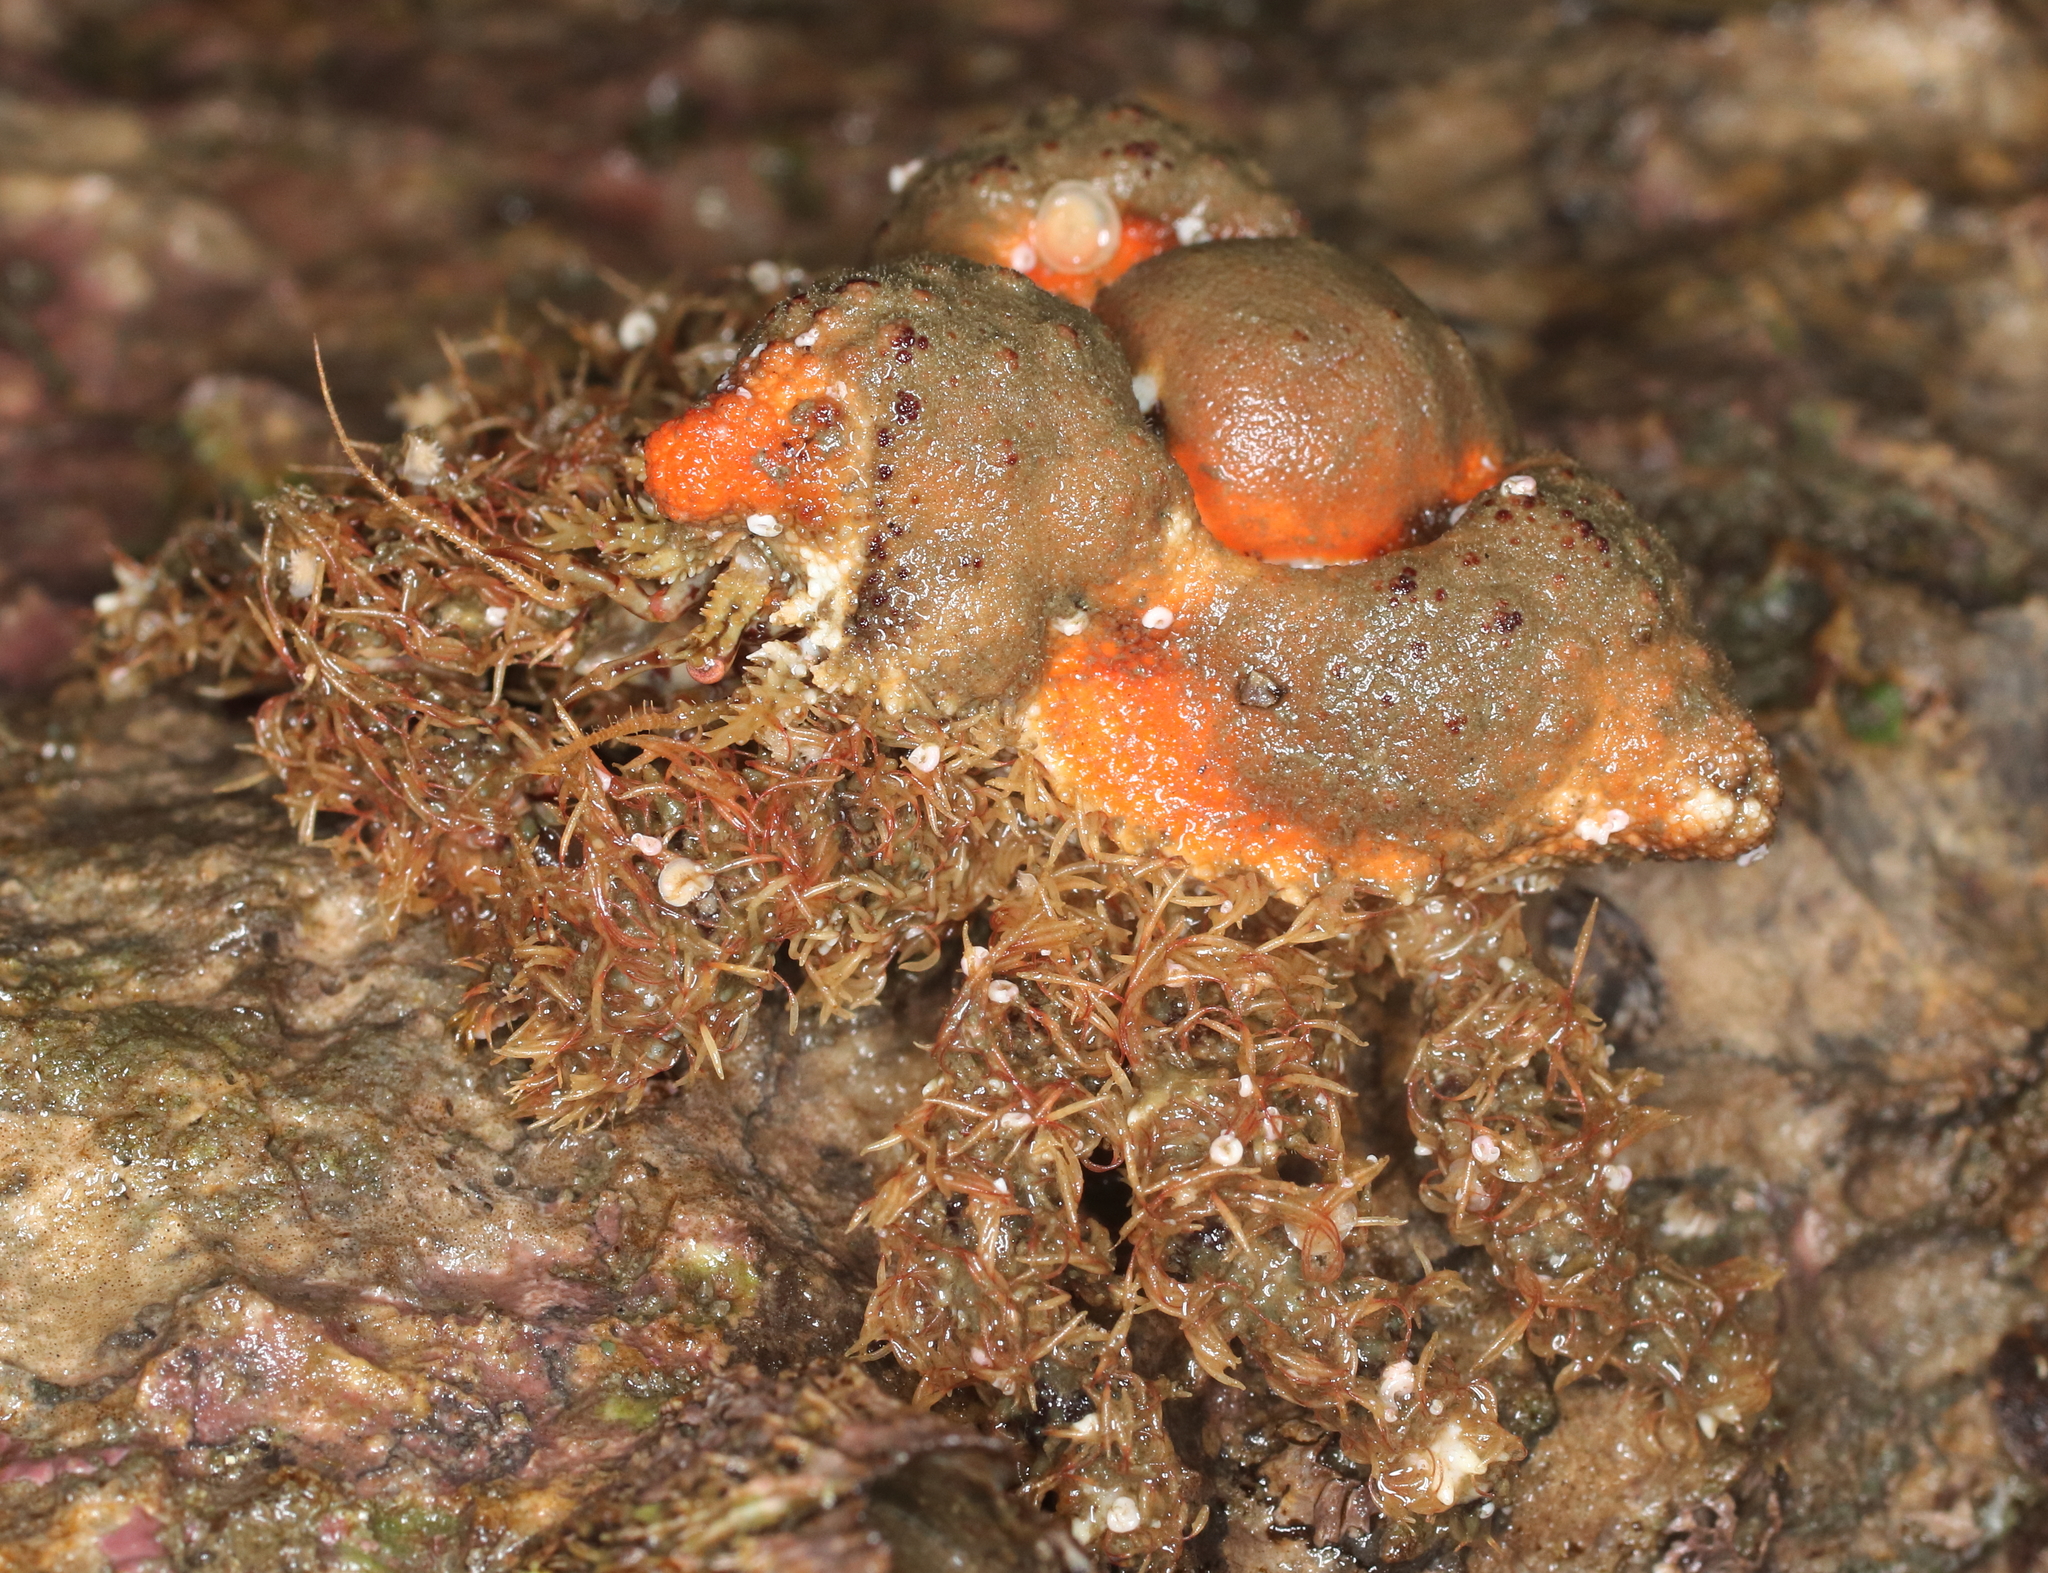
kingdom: Animalia
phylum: Arthropoda
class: Malacostraca
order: Decapoda
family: Lithodidae
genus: Rhinolithodes
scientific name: Rhinolithodes wosnessenskii
